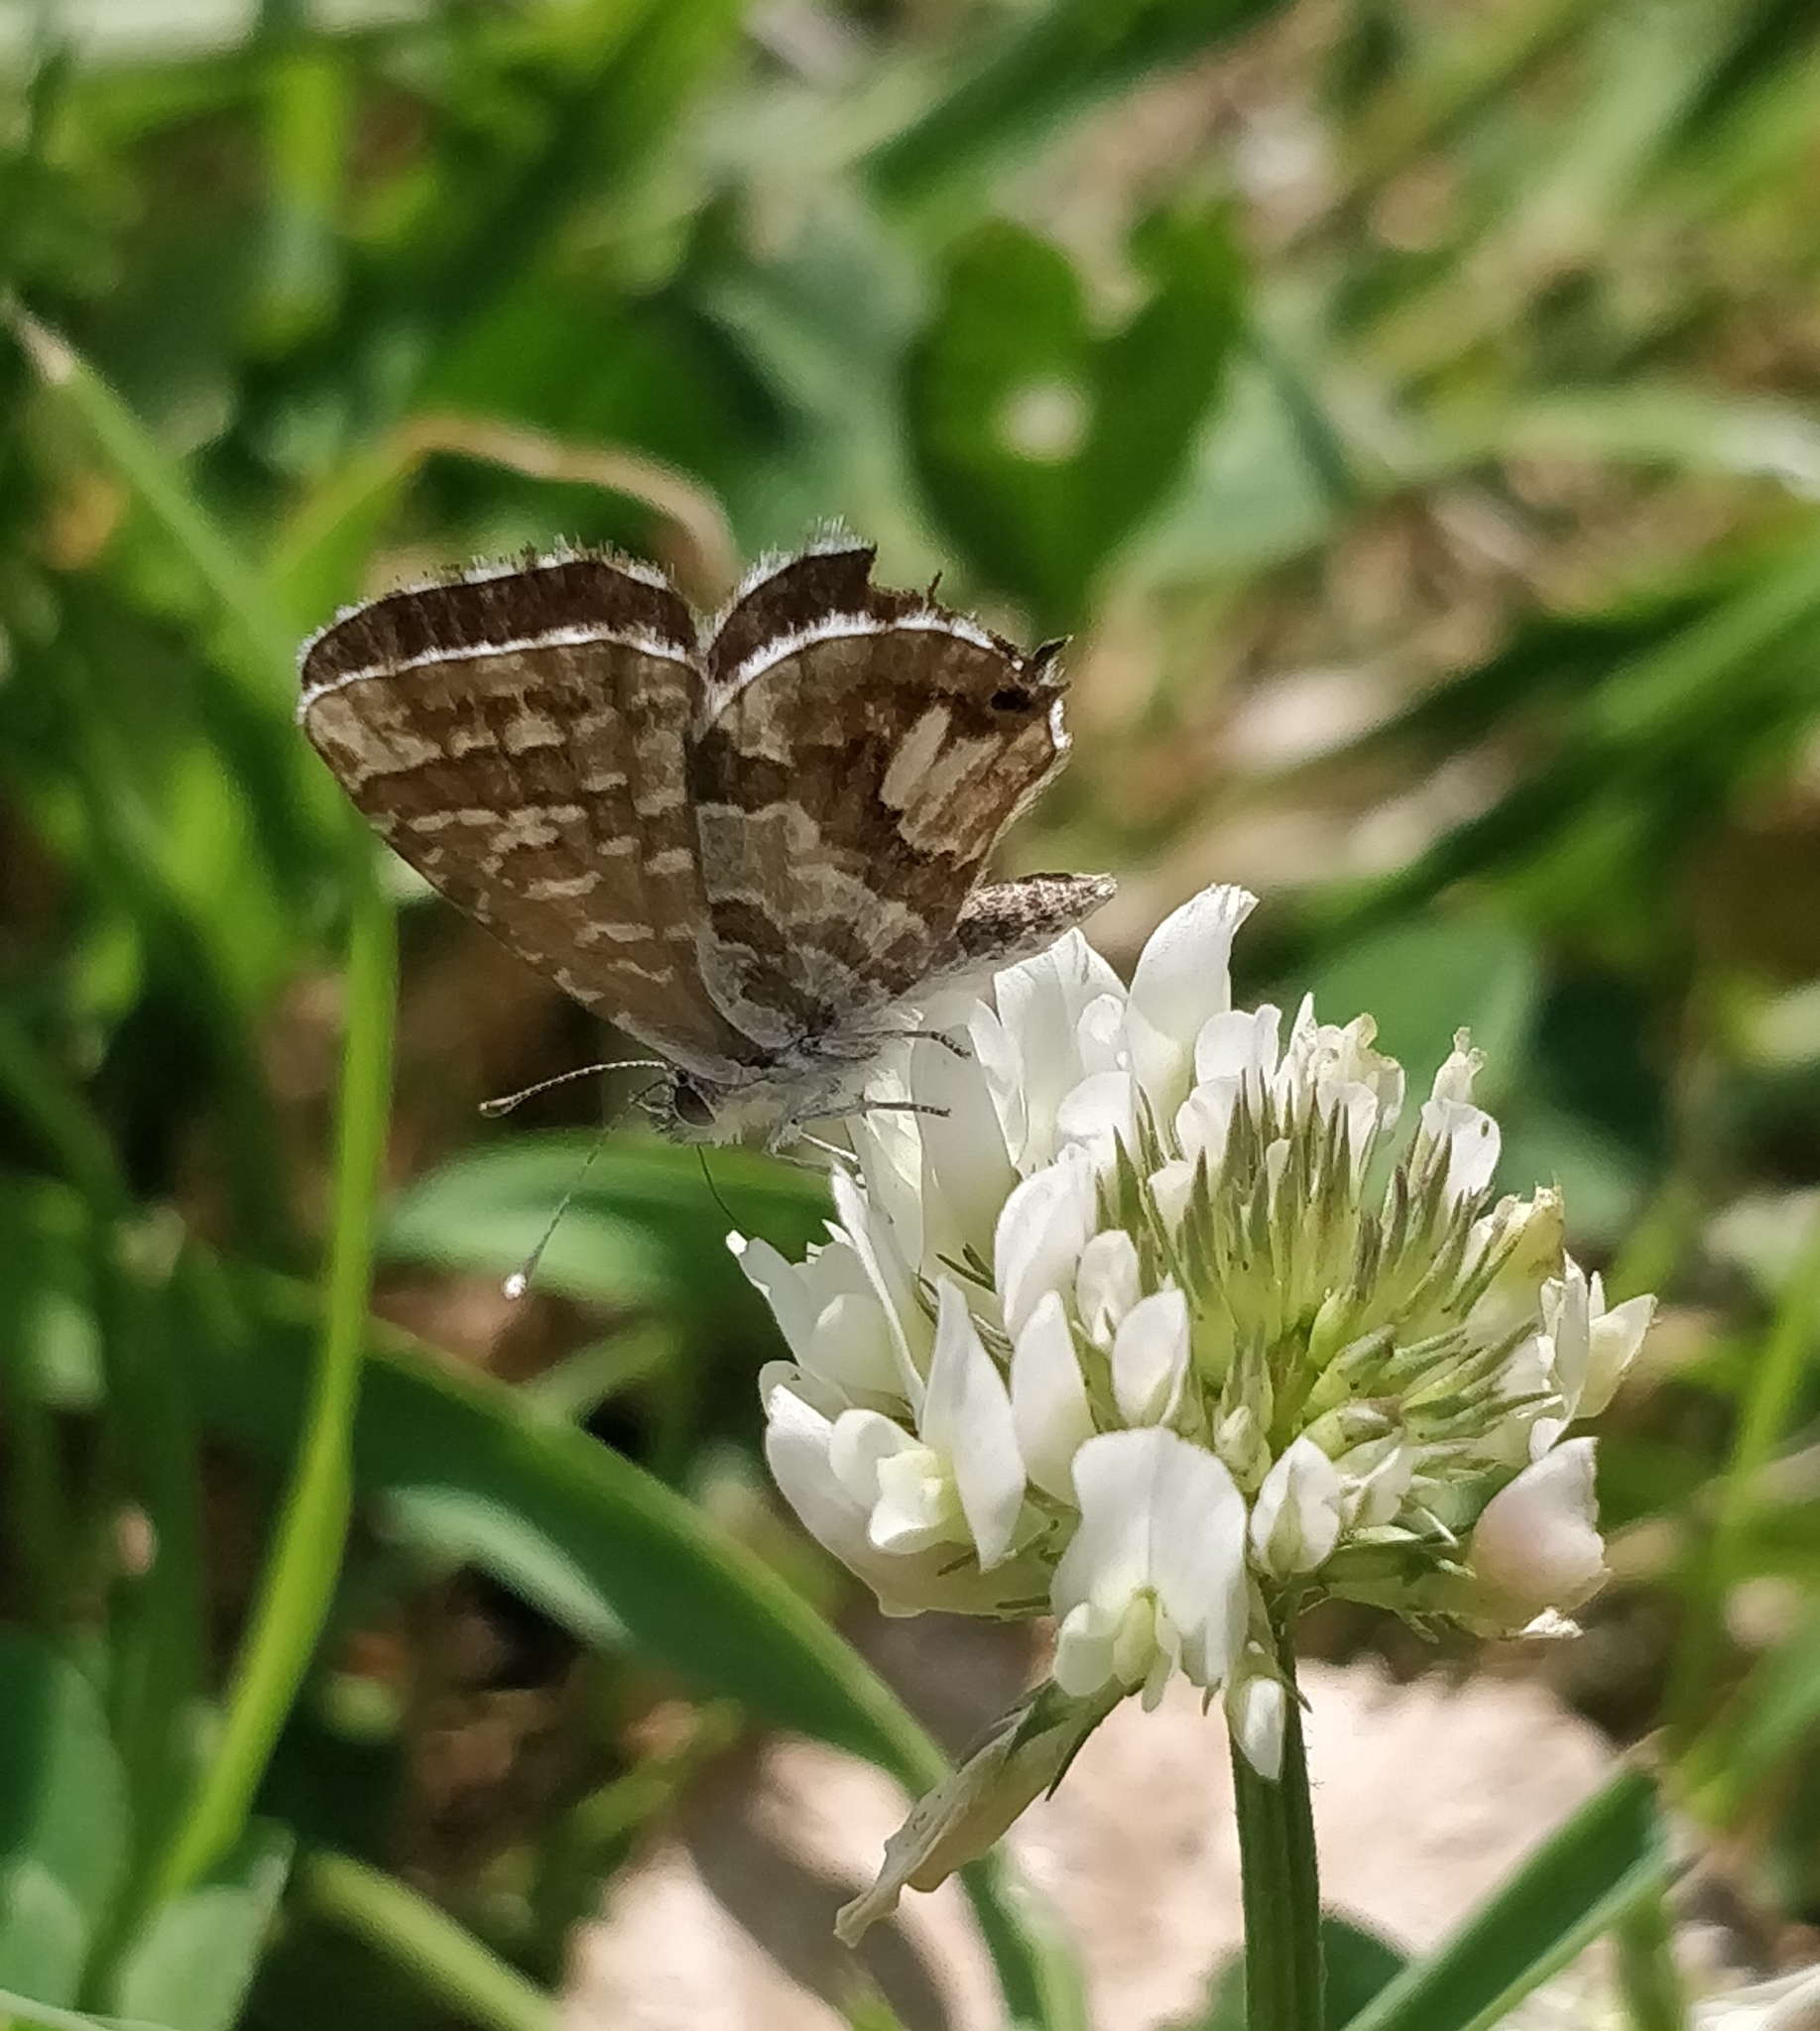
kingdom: Animalia
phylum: Arthropoda
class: Insecta
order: Lepidoptera
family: Lycaenidae
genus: Cacyreus
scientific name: Cacyreus marshalli
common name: Geranium bronze
